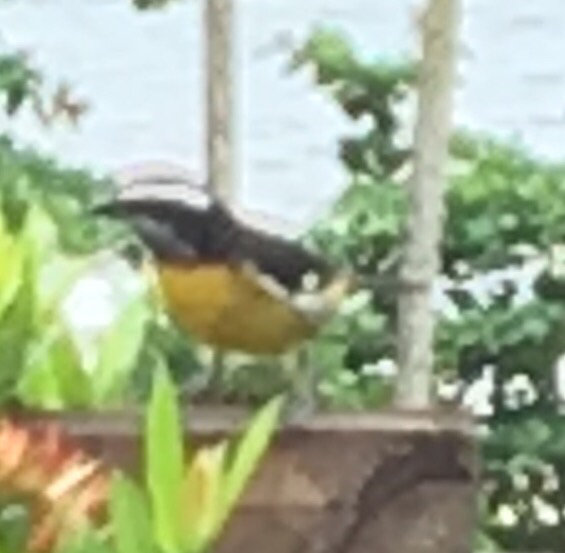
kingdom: Animalia
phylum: Chordata
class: Aves
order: Passeriformes
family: Thraupidae
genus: Coereba
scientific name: Coereba flaveola
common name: Bananaquit
